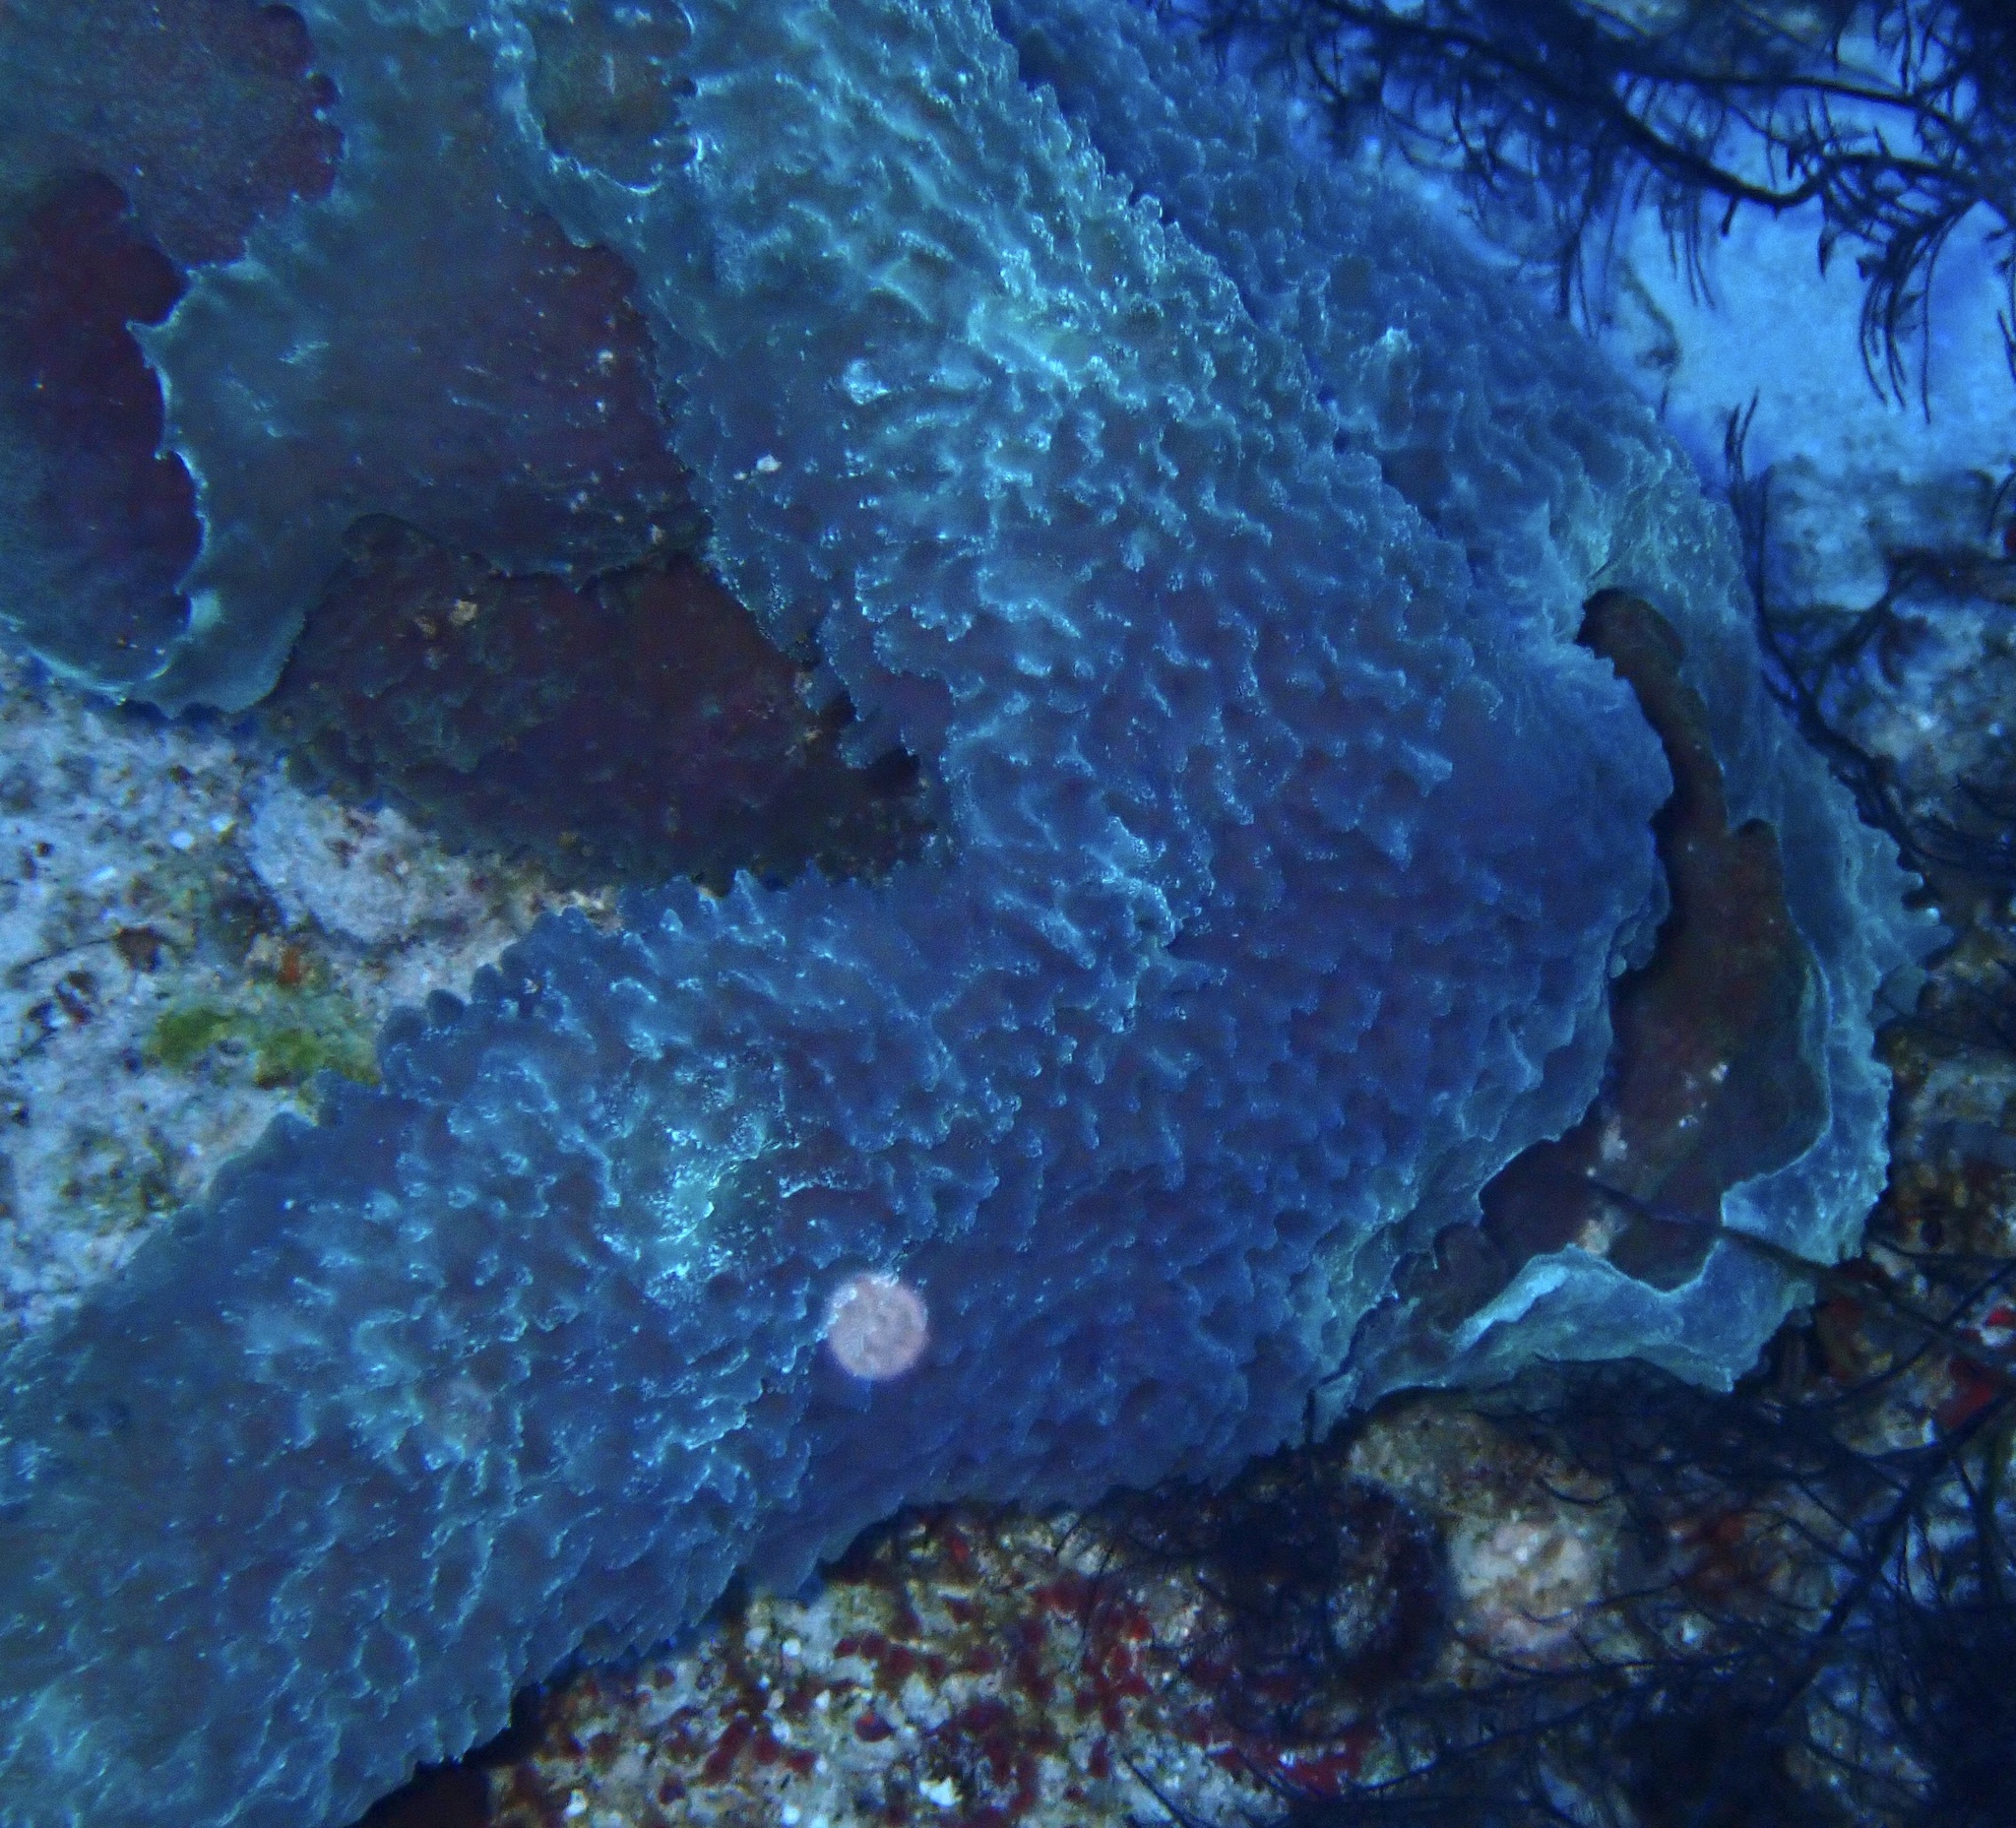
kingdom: Animalia
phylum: Porifera
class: Demospongiae
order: Haplosclerida
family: Callyspongiidae
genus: Callyspongia
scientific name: Callyspongia plicifera
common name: Azure vase sponge
